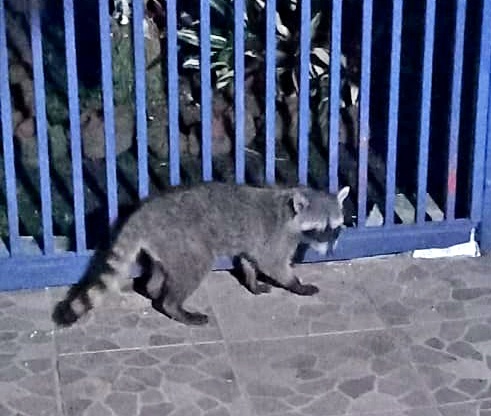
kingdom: Animalia
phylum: Chordata
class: Mammalia
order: Carnivora
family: Procyonidae
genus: Procyon
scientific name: Procyon lotor
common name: Raccoon
